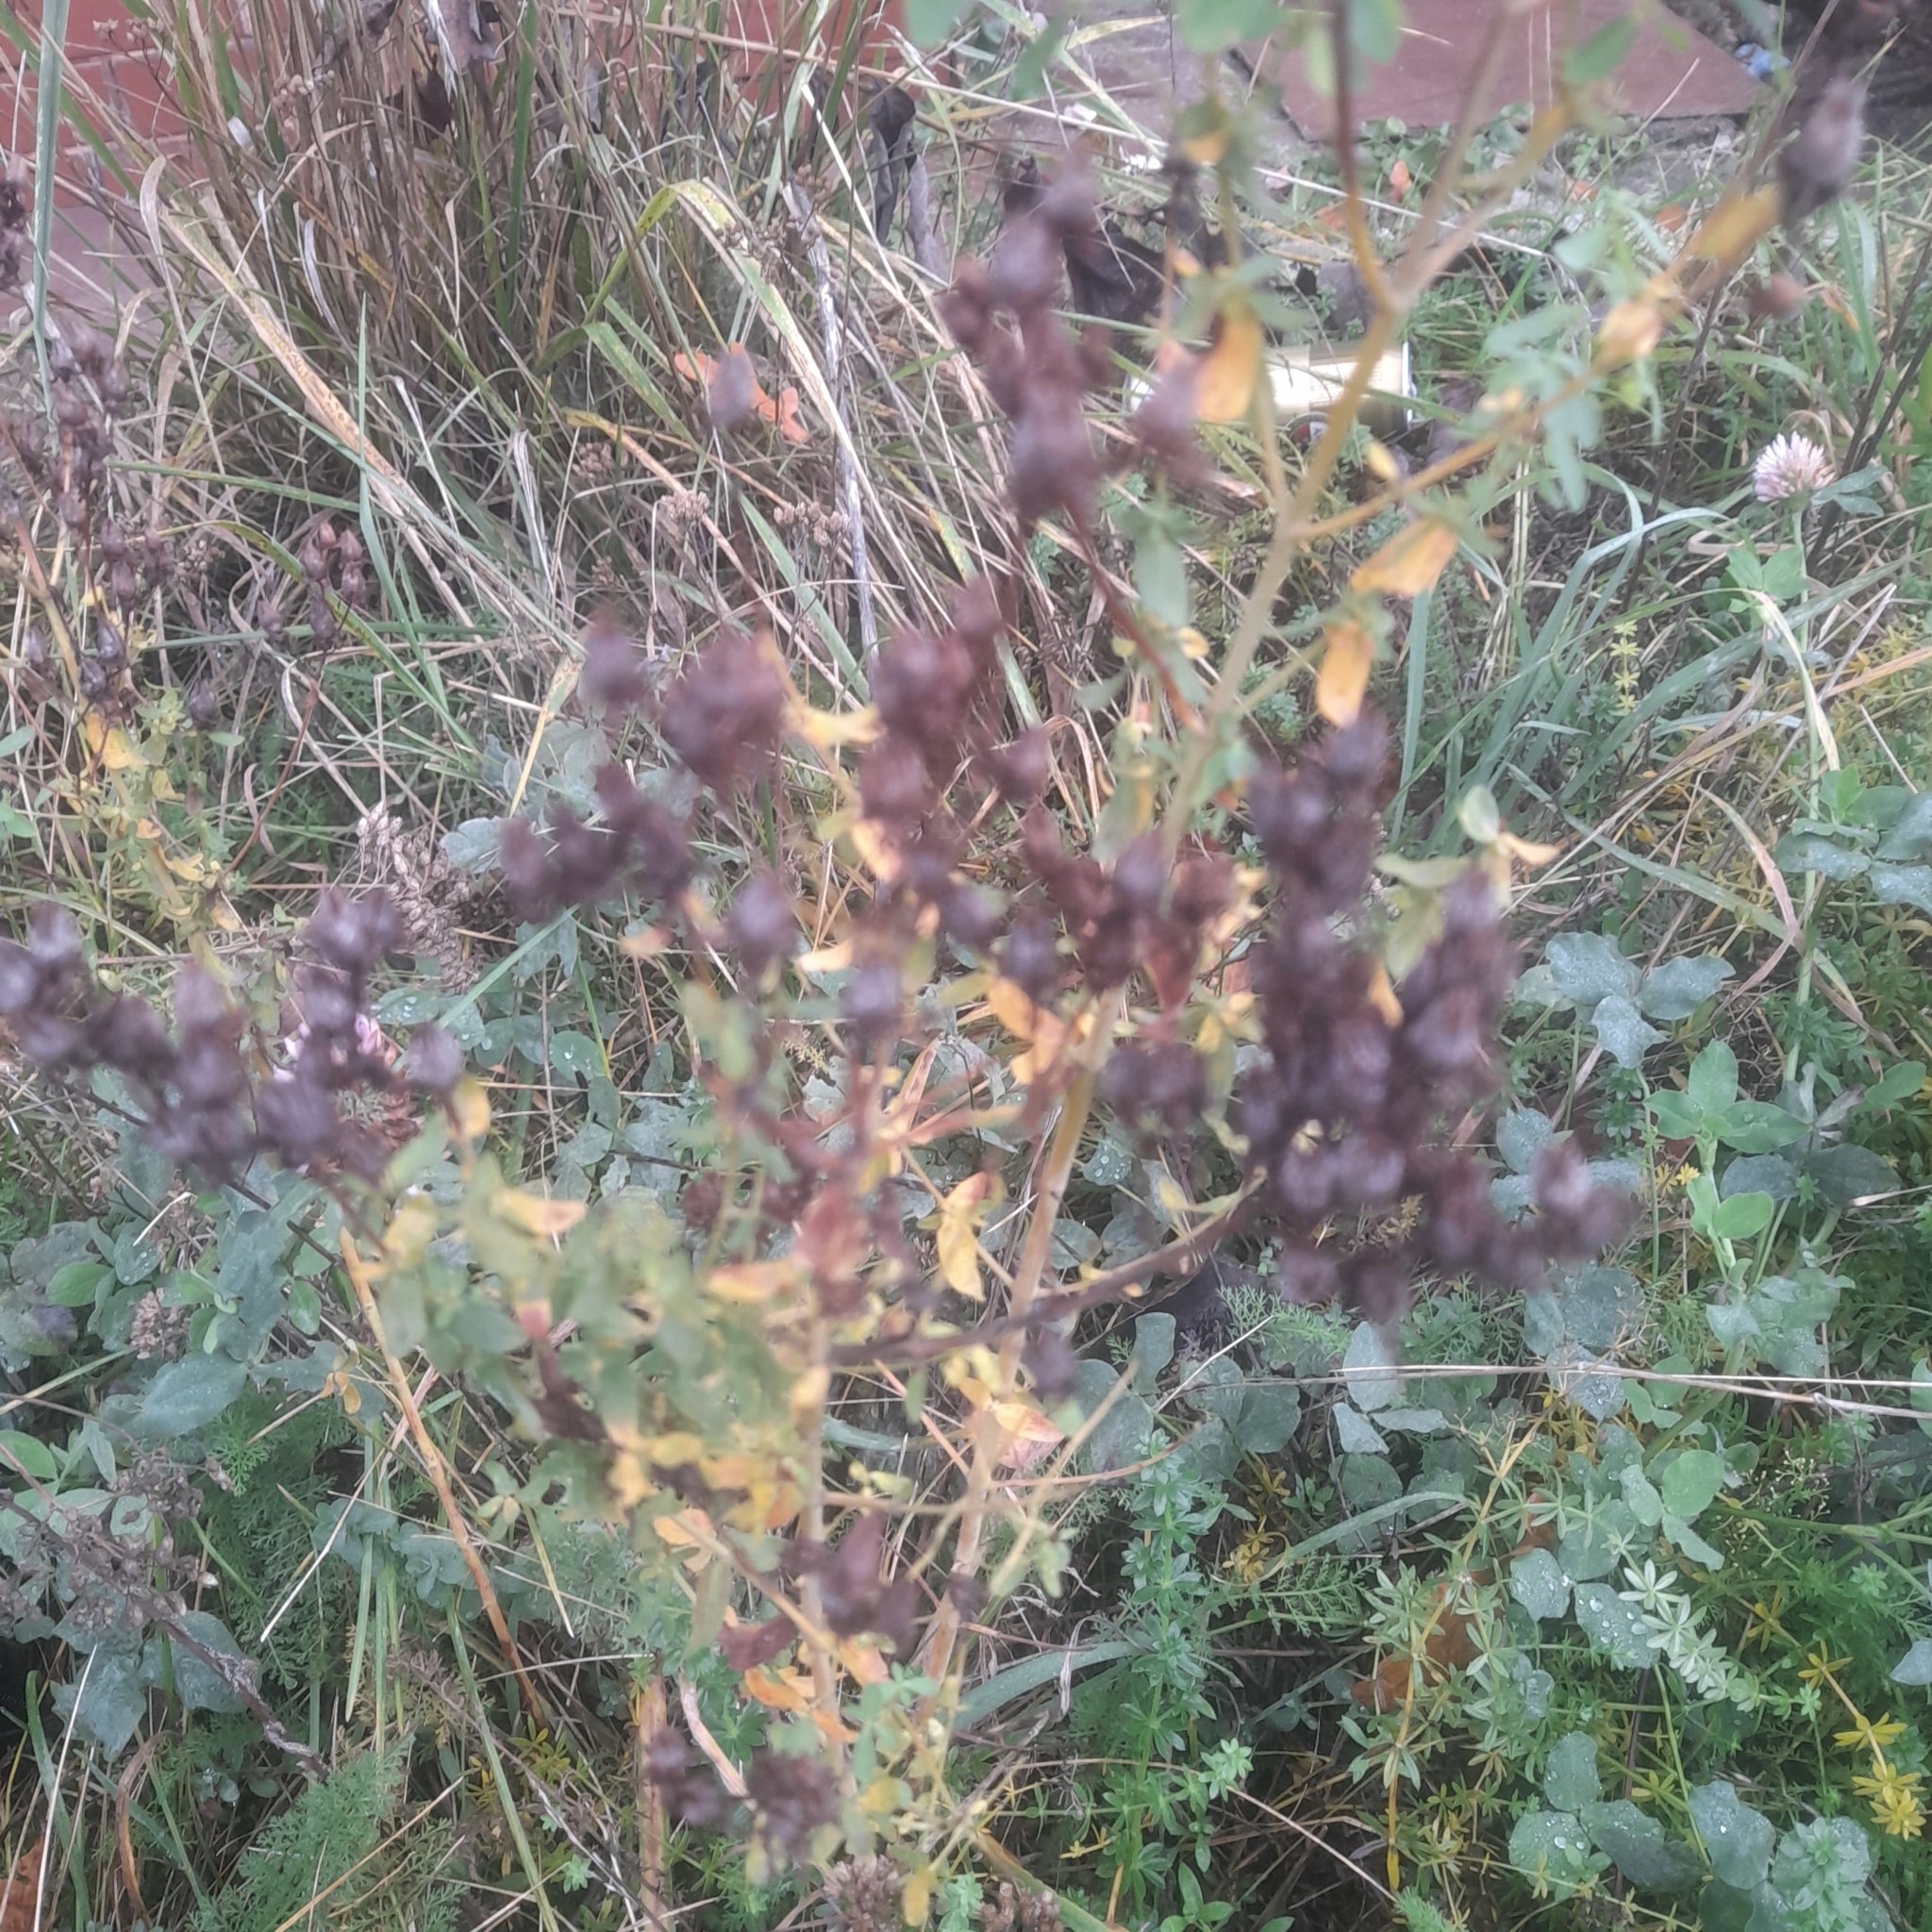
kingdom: Plantae
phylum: Tracheophyta
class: Magnoliopsida
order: Malpighiales
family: Hypericaceae
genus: Hypericum
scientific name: Hypericum perforatum
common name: Common st. johnswort
